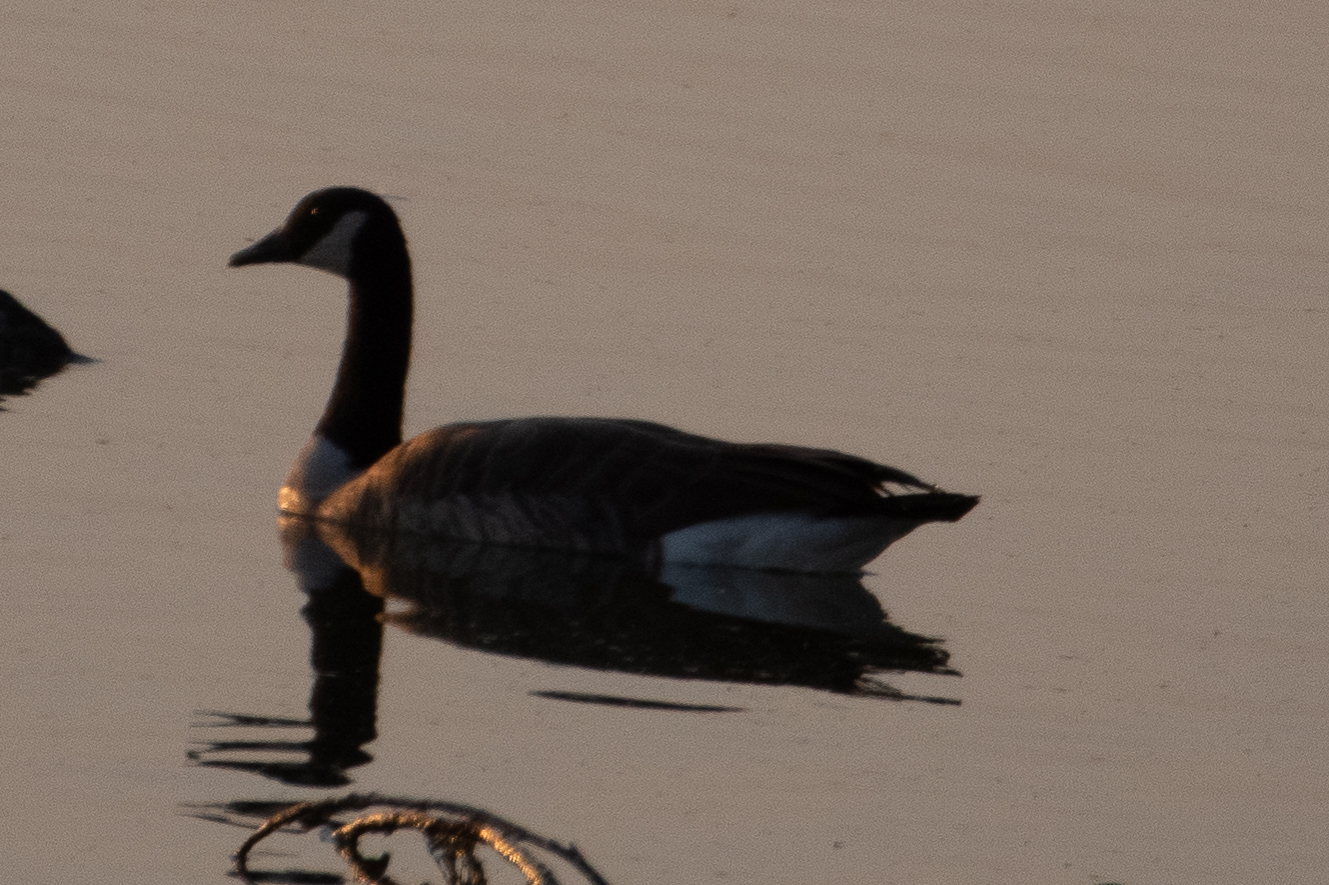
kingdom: Animalia
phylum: Chordata
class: Aves
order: Anseriformes
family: Anatidae
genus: Branta
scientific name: Branta canadensis
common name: Canada goose
